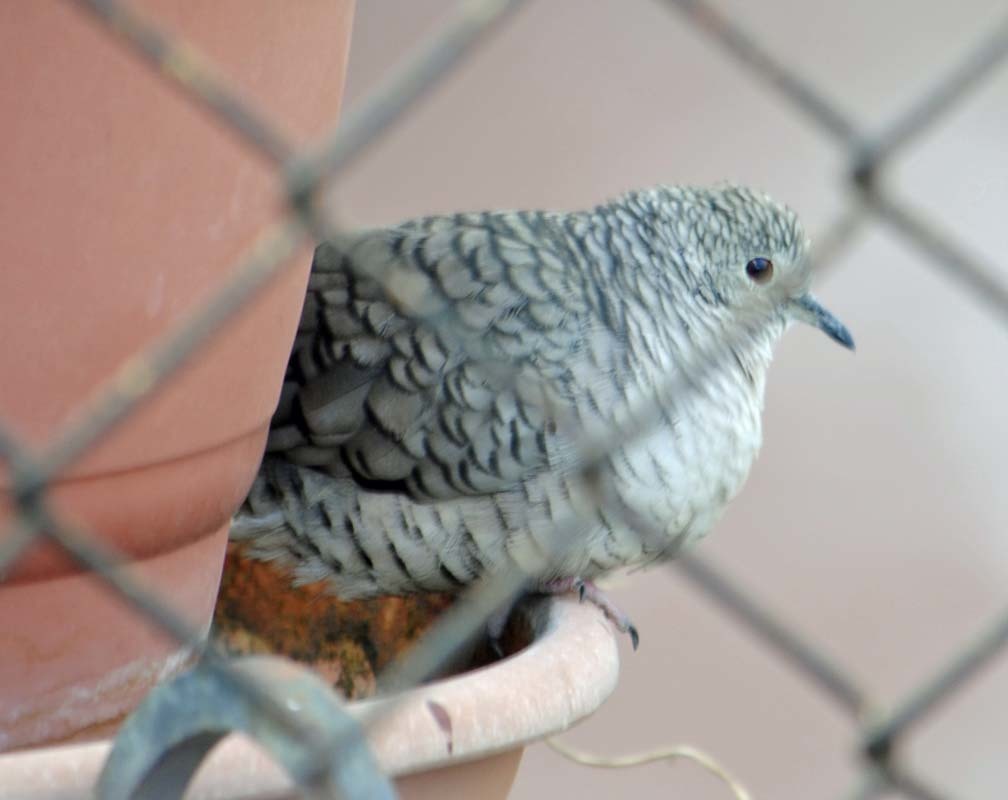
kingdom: Animalia
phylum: Chordata
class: Aves
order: Columbiformes
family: Columbidae
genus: Columbina
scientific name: Columbina inca
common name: Inca dove
